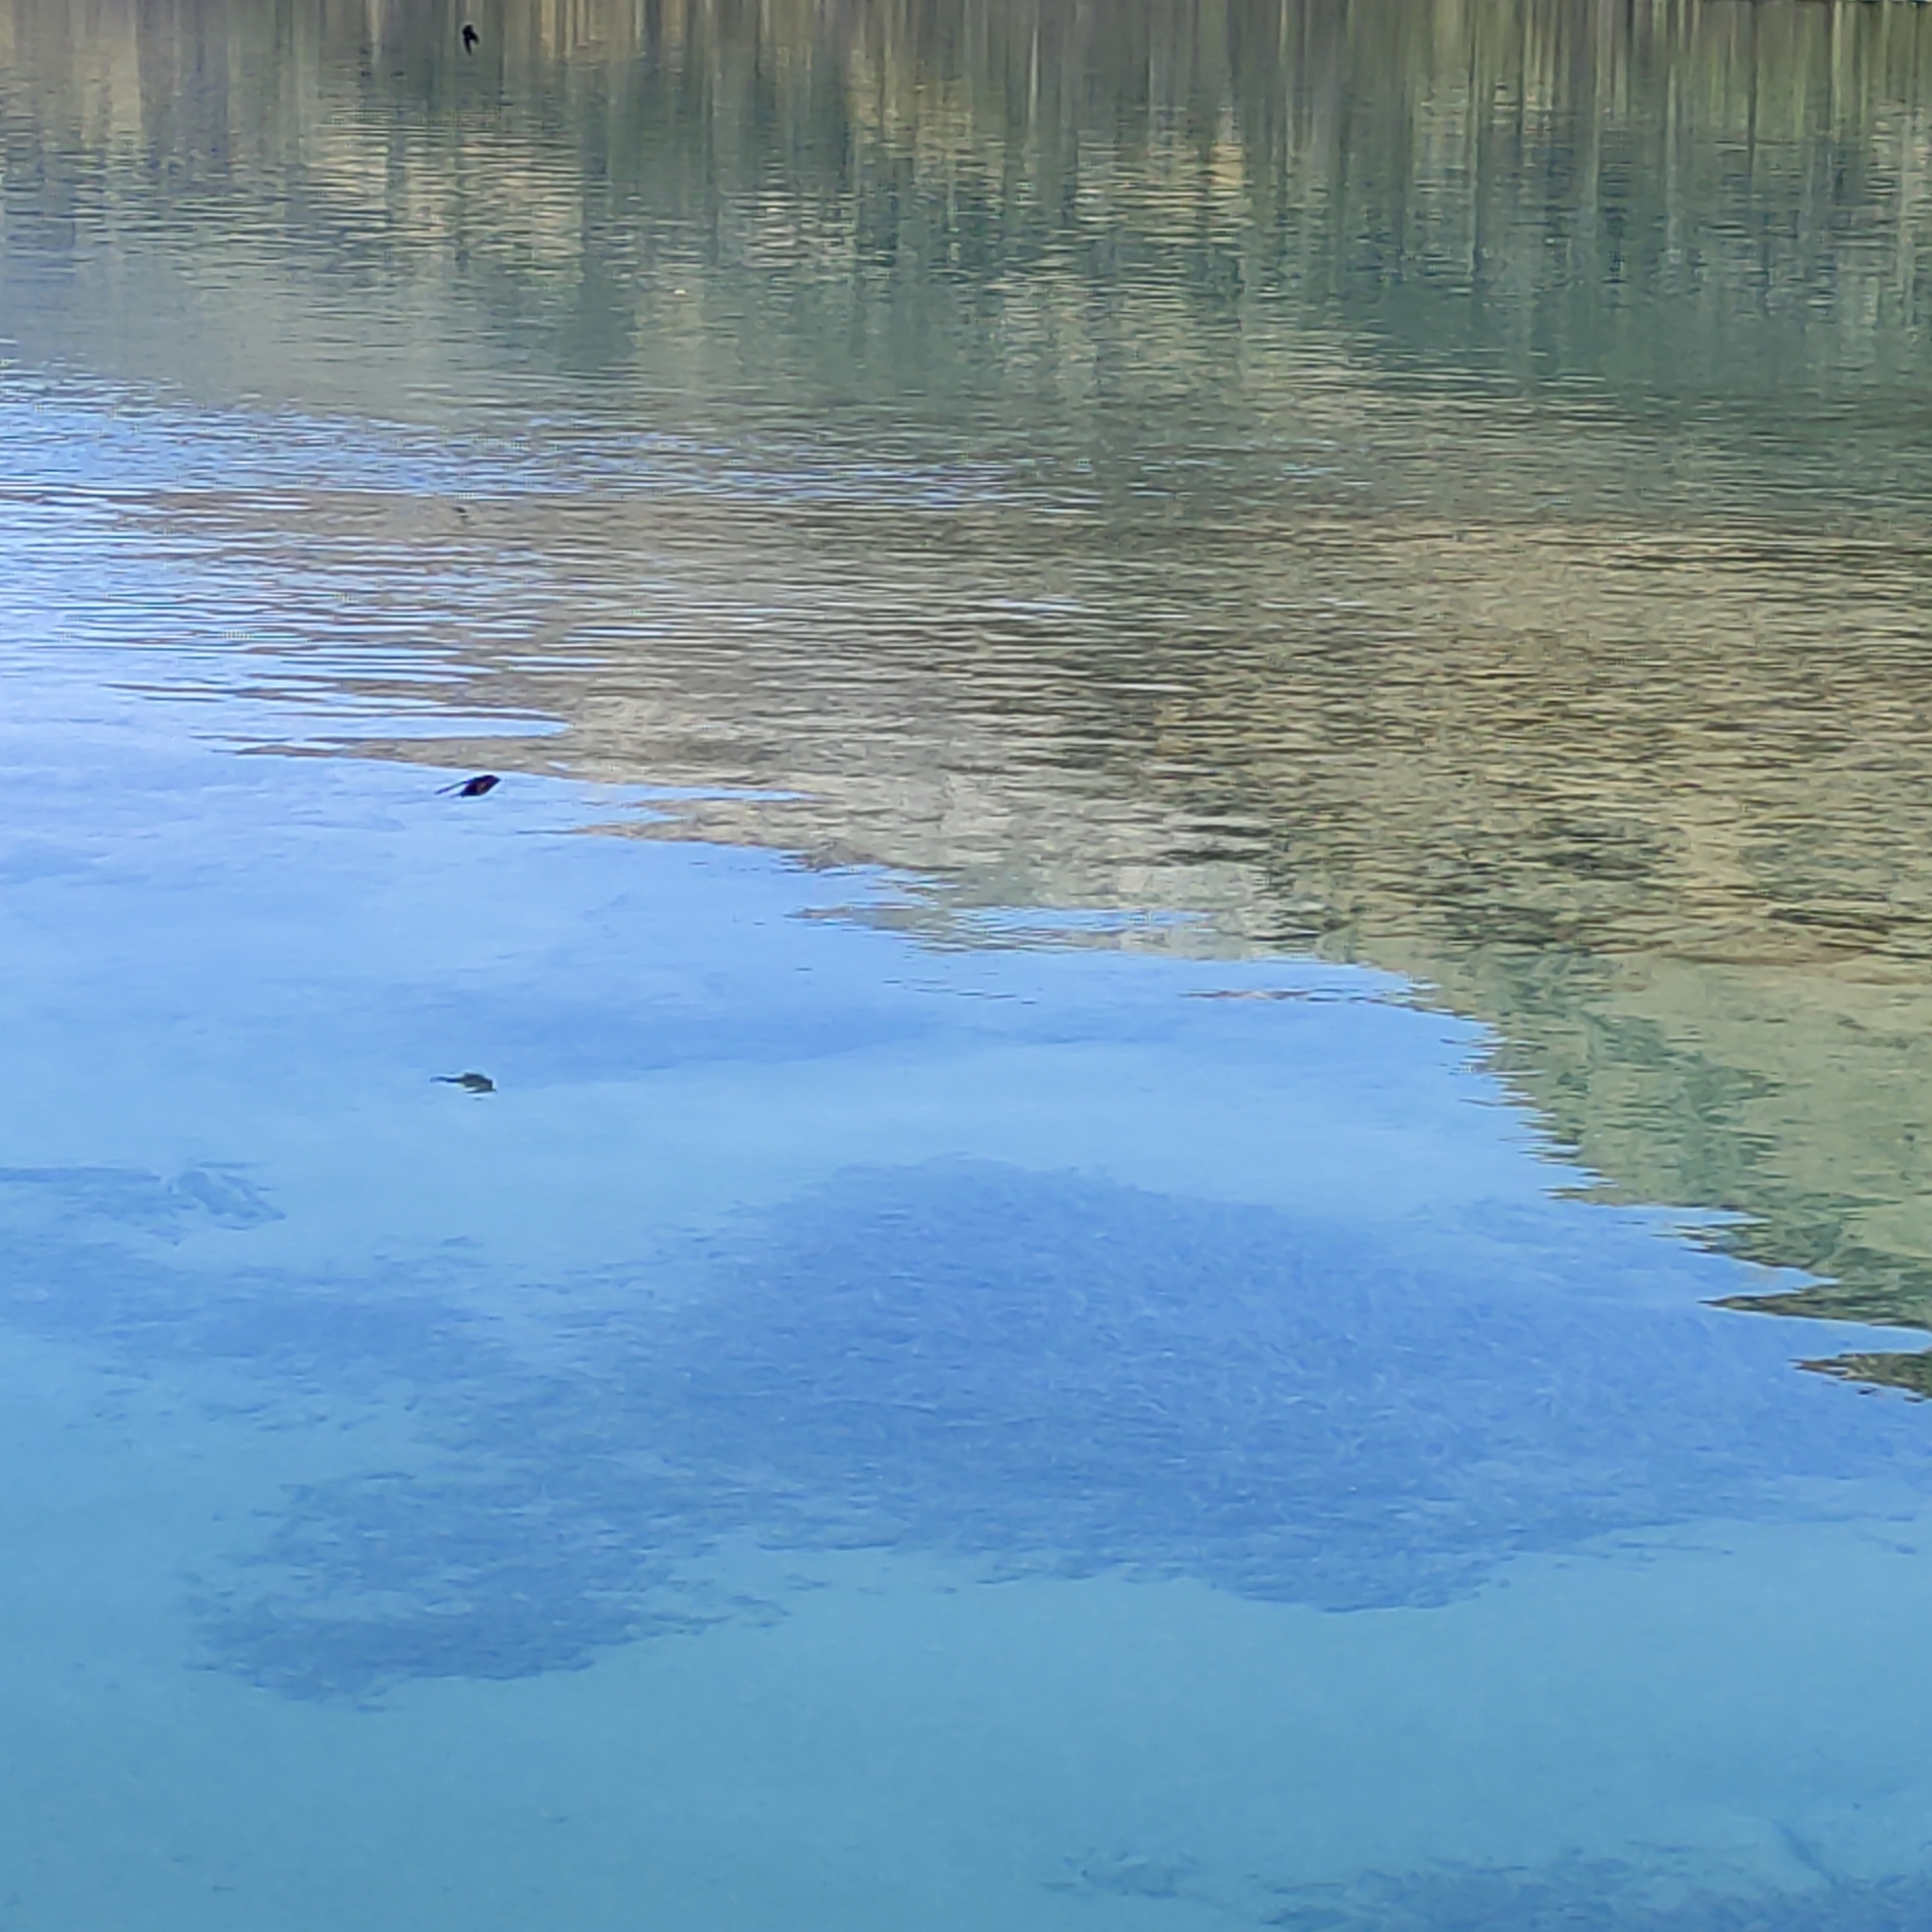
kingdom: Animalia
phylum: Chordata
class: Aves
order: Passeriformes
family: Hirundinidae
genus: Hirundo
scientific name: Hirundo neoxena
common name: Welcome swallow
